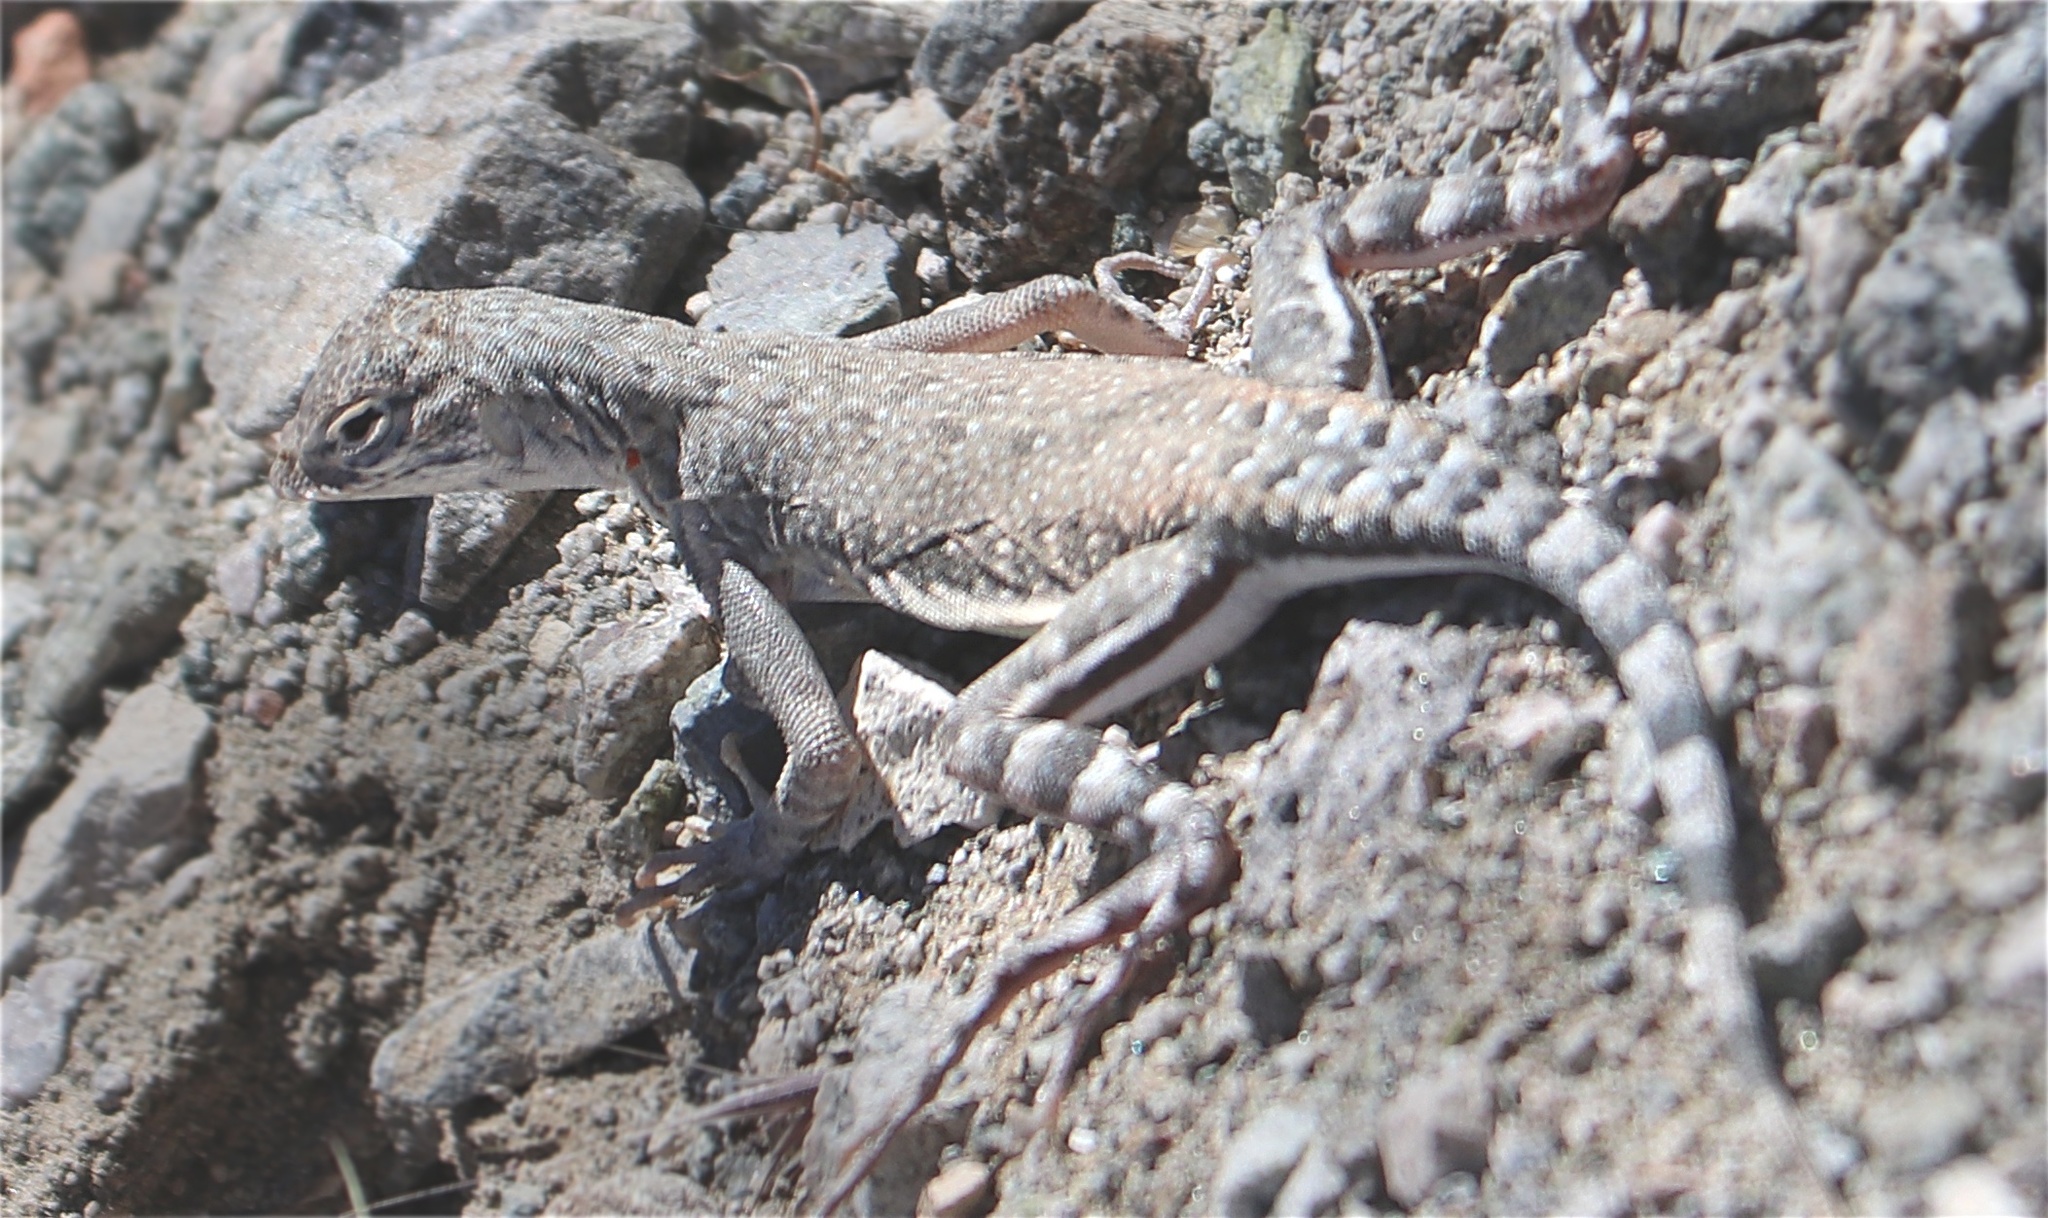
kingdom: Animalia
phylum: Chordata
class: Squamata
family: Phrynosomatidae
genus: Callisaurus
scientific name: Callisaurus draconoides
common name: Zebra-tailed lizard
